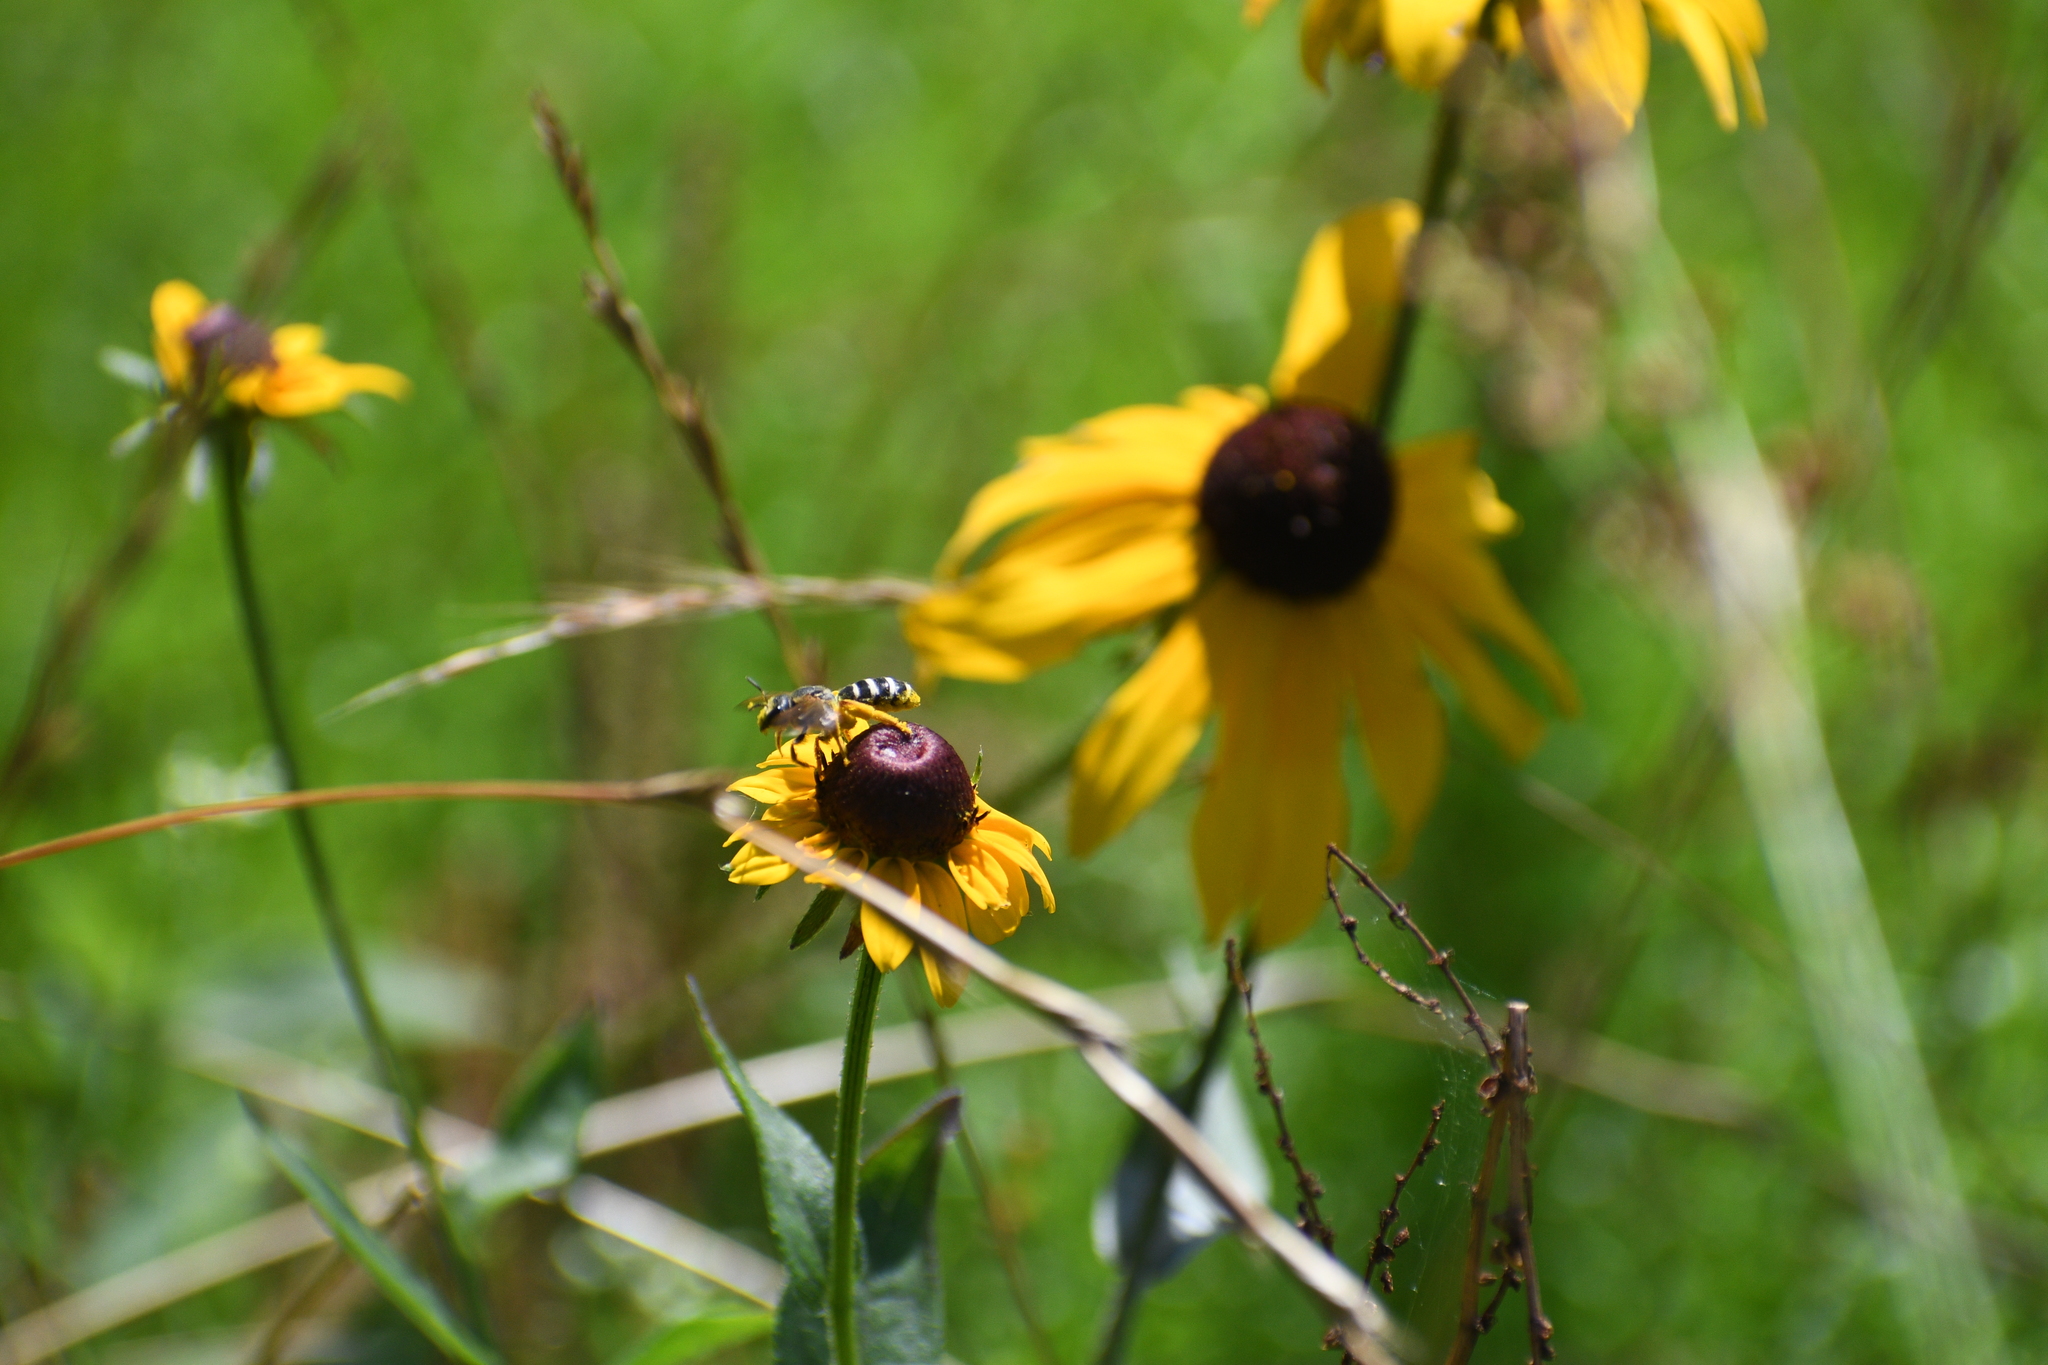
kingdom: Animalia
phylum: Arthropoda
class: Insecta
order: Hymenoptera
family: Halictidae
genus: Halictus
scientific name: Halictus parallelus
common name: Parallel-striped sweat bee
